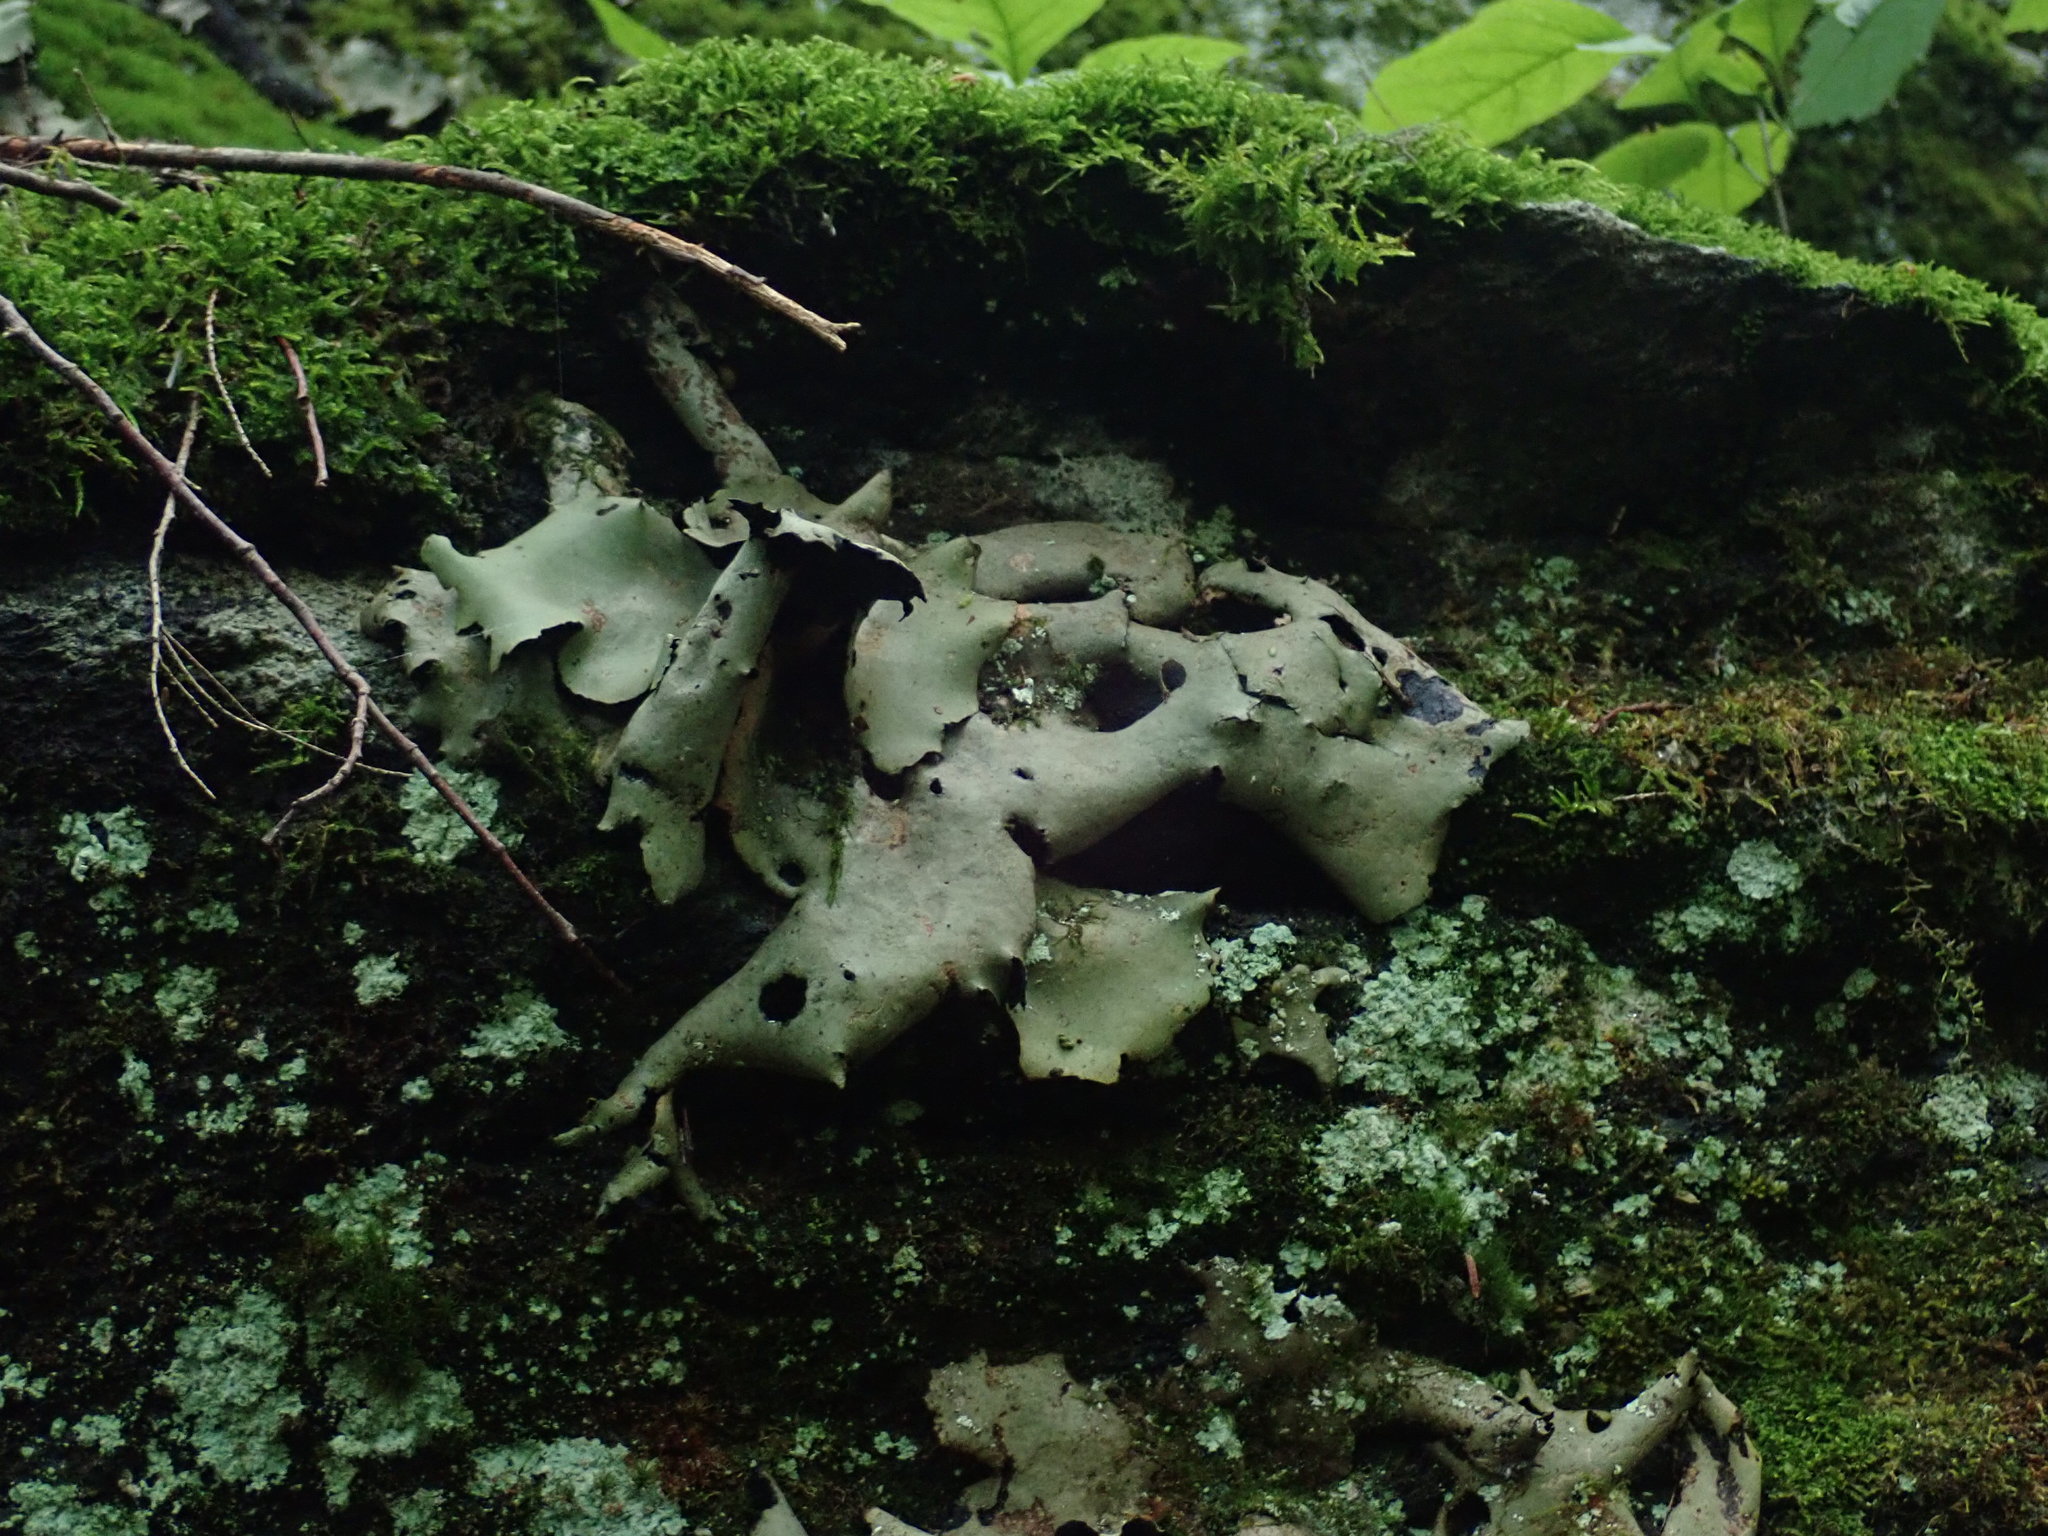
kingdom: Fungi
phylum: Ascomycota
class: Lecanoromycetes
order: Umbilicariales
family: Umbilicariaceae
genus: Umbilicaria
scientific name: Umbilicaria mammulata
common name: Smooth rock tripe
